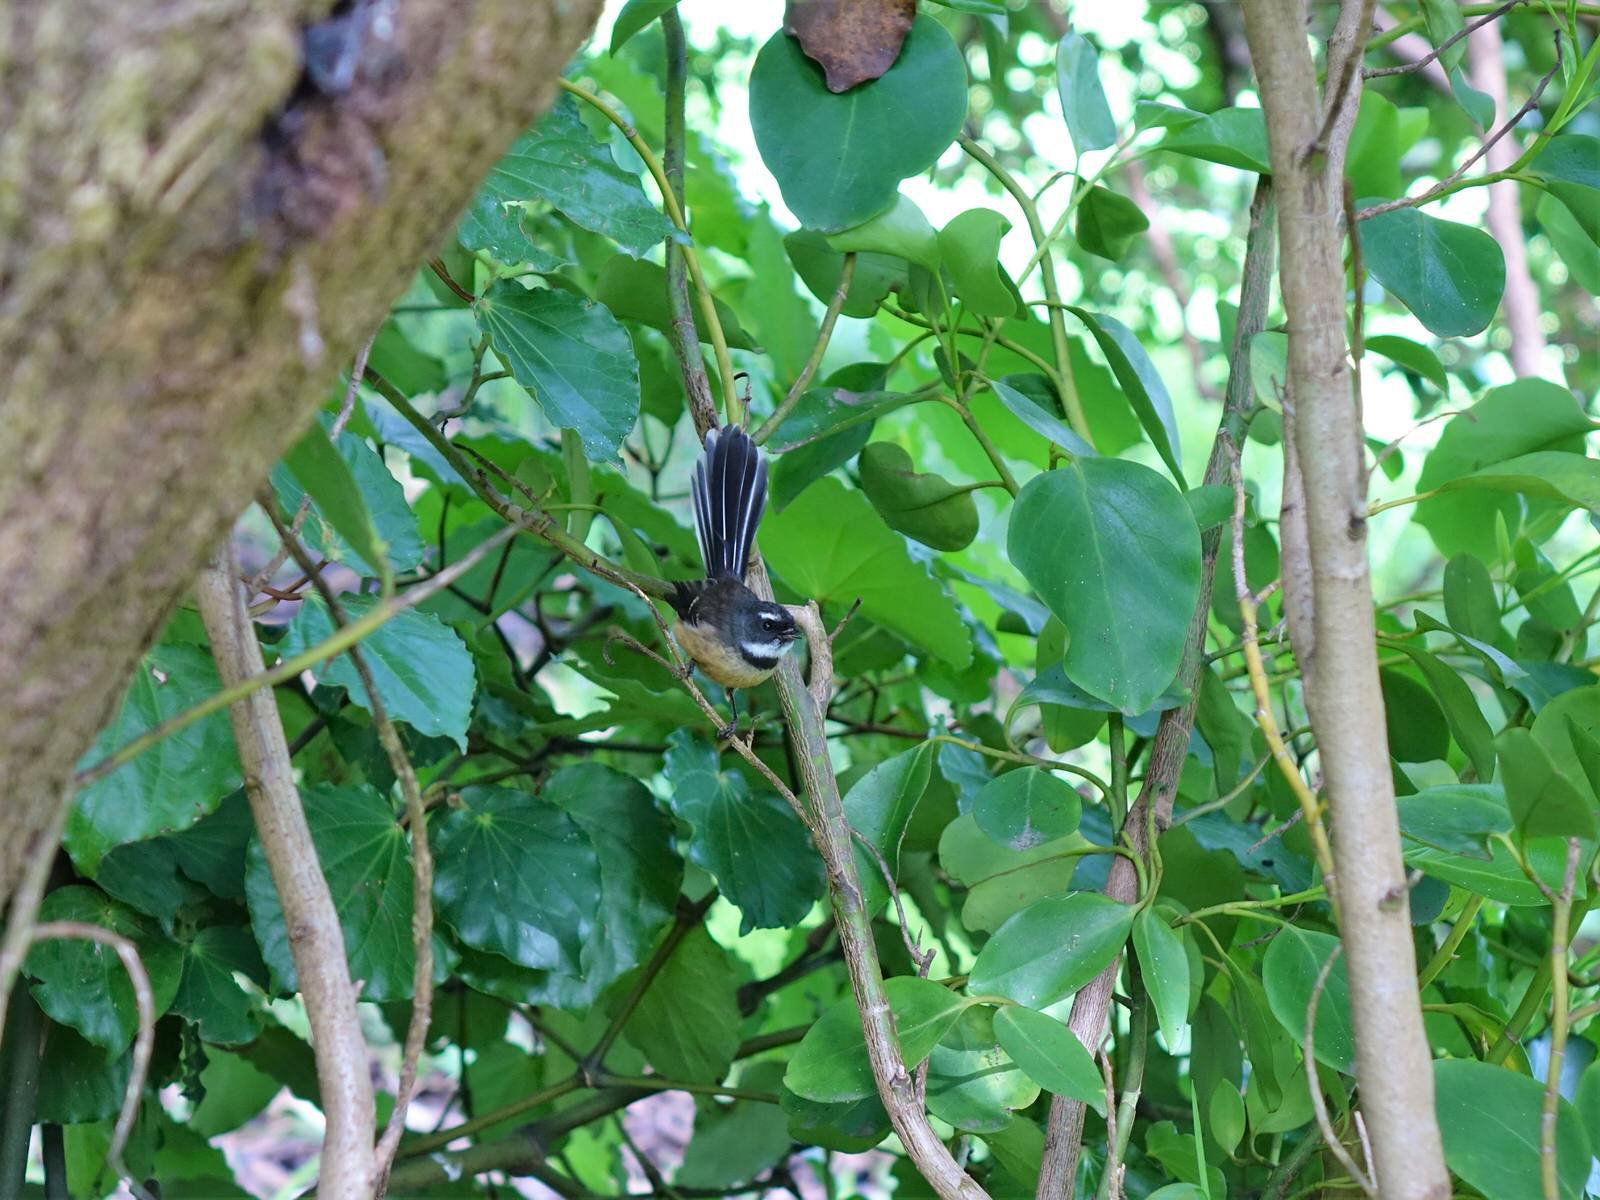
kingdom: Animalia
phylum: Chordata
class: Aves
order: Passeriformes
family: Rhipiduridae
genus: Rhipidura
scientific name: Rhipidura fuliginosa
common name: New zealand fantail
